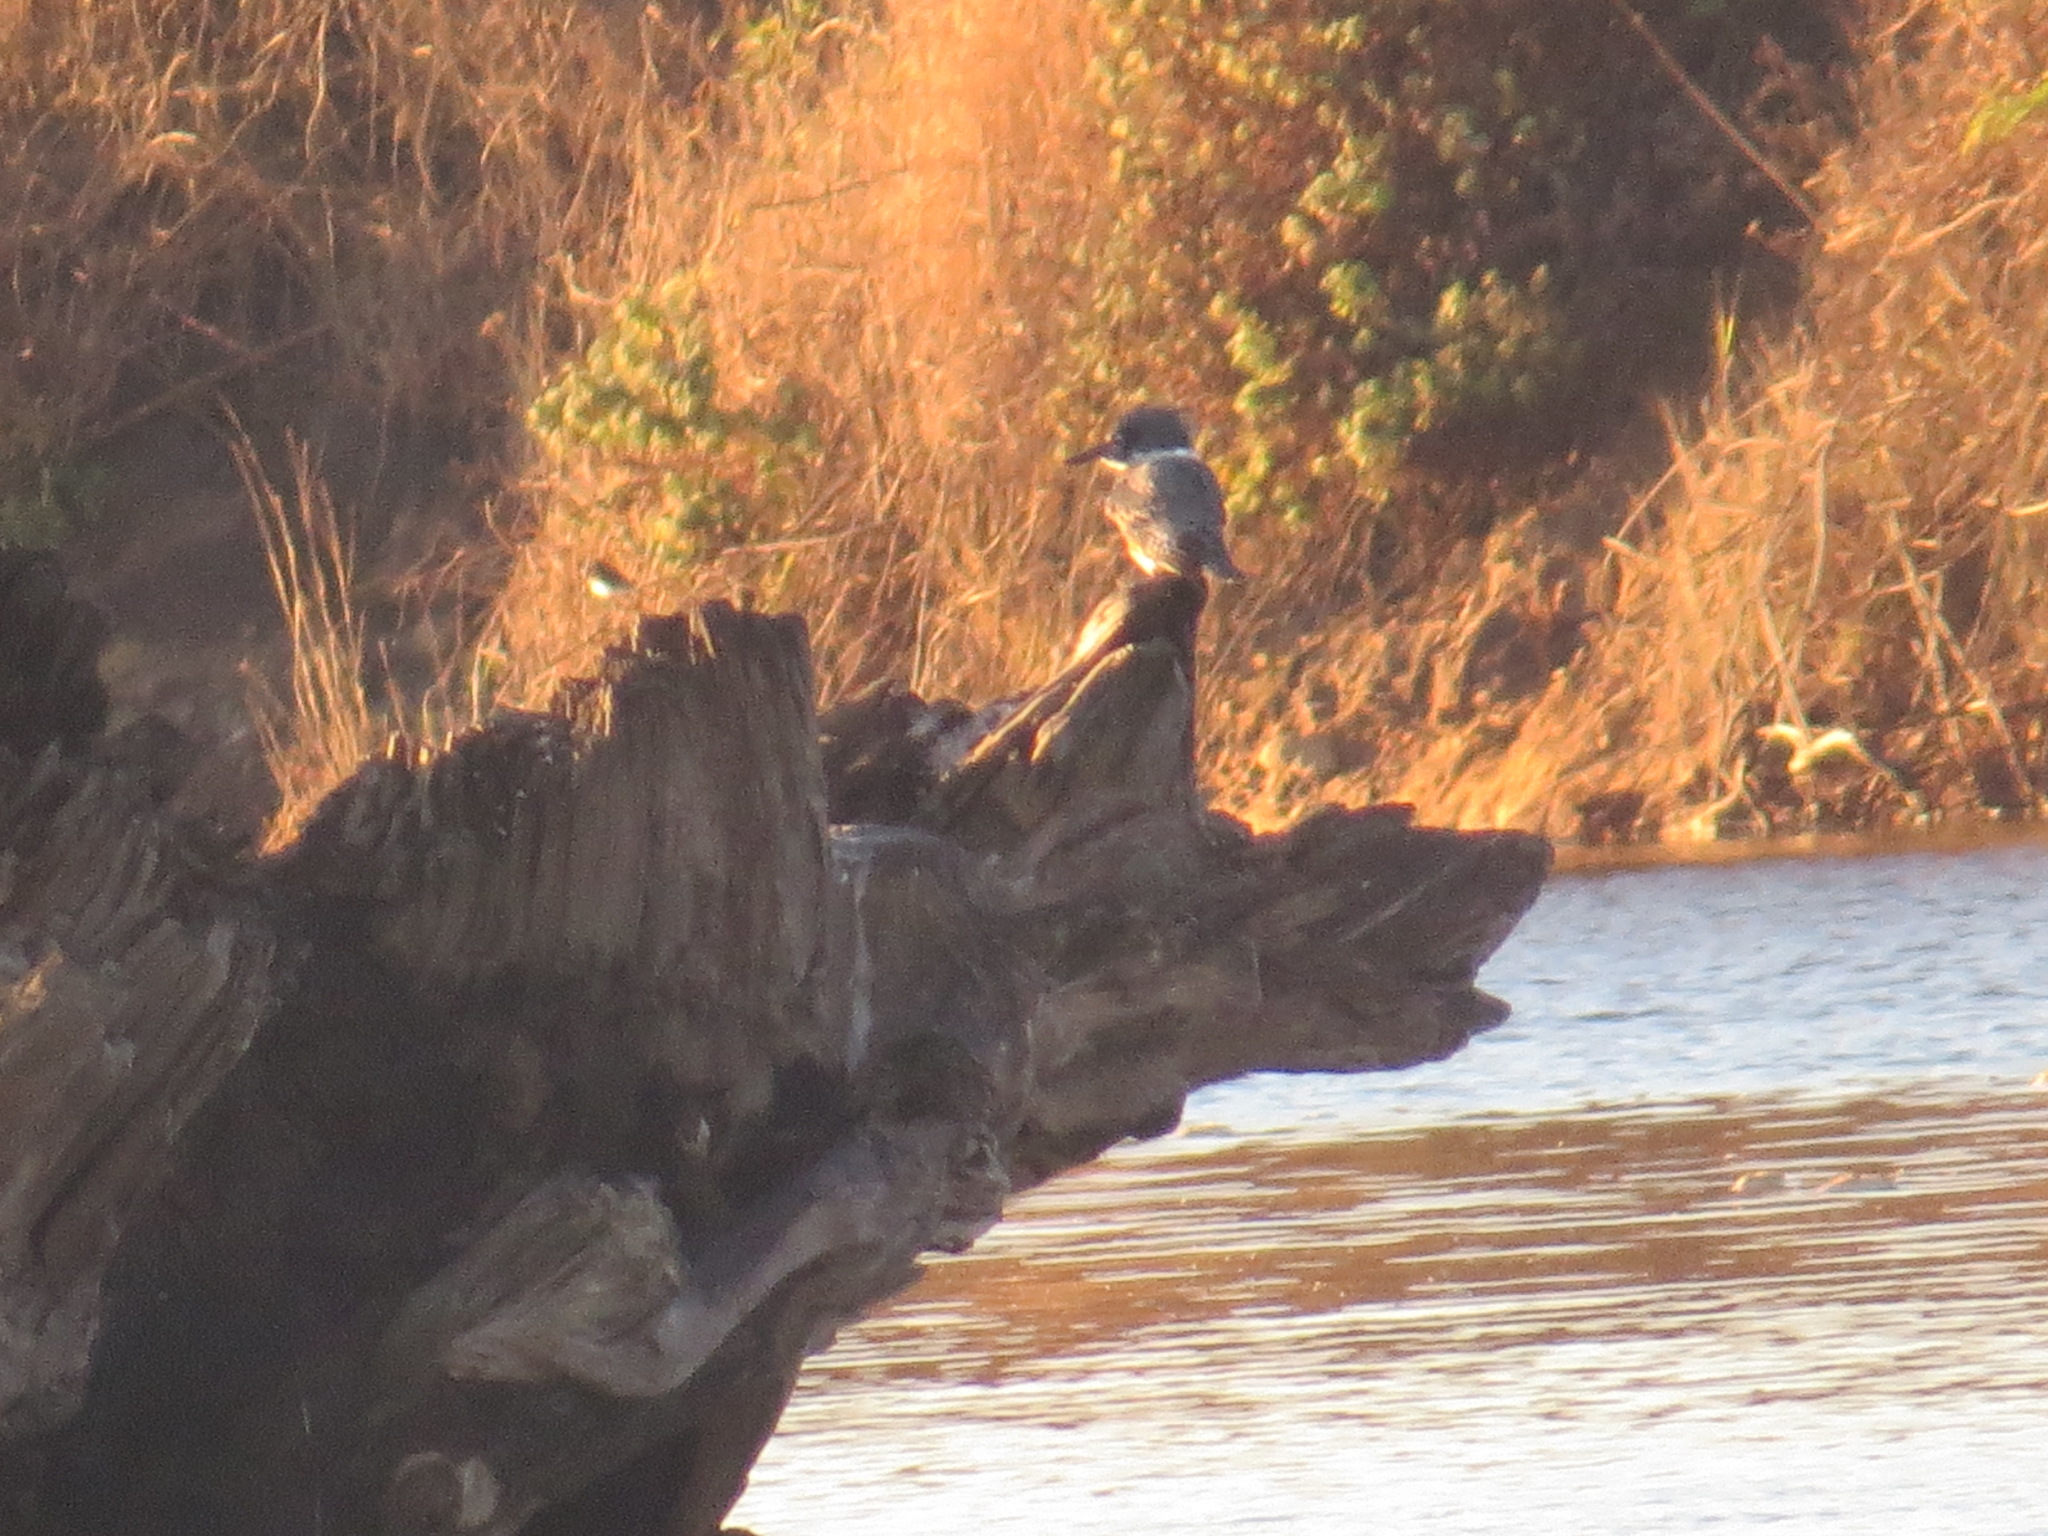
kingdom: Animalia
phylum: Chordata
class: Aves
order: Coraciiformes
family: Alcedinidae
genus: Megaceryle
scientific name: Megaceryle alcyon
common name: Belted kingfisher
